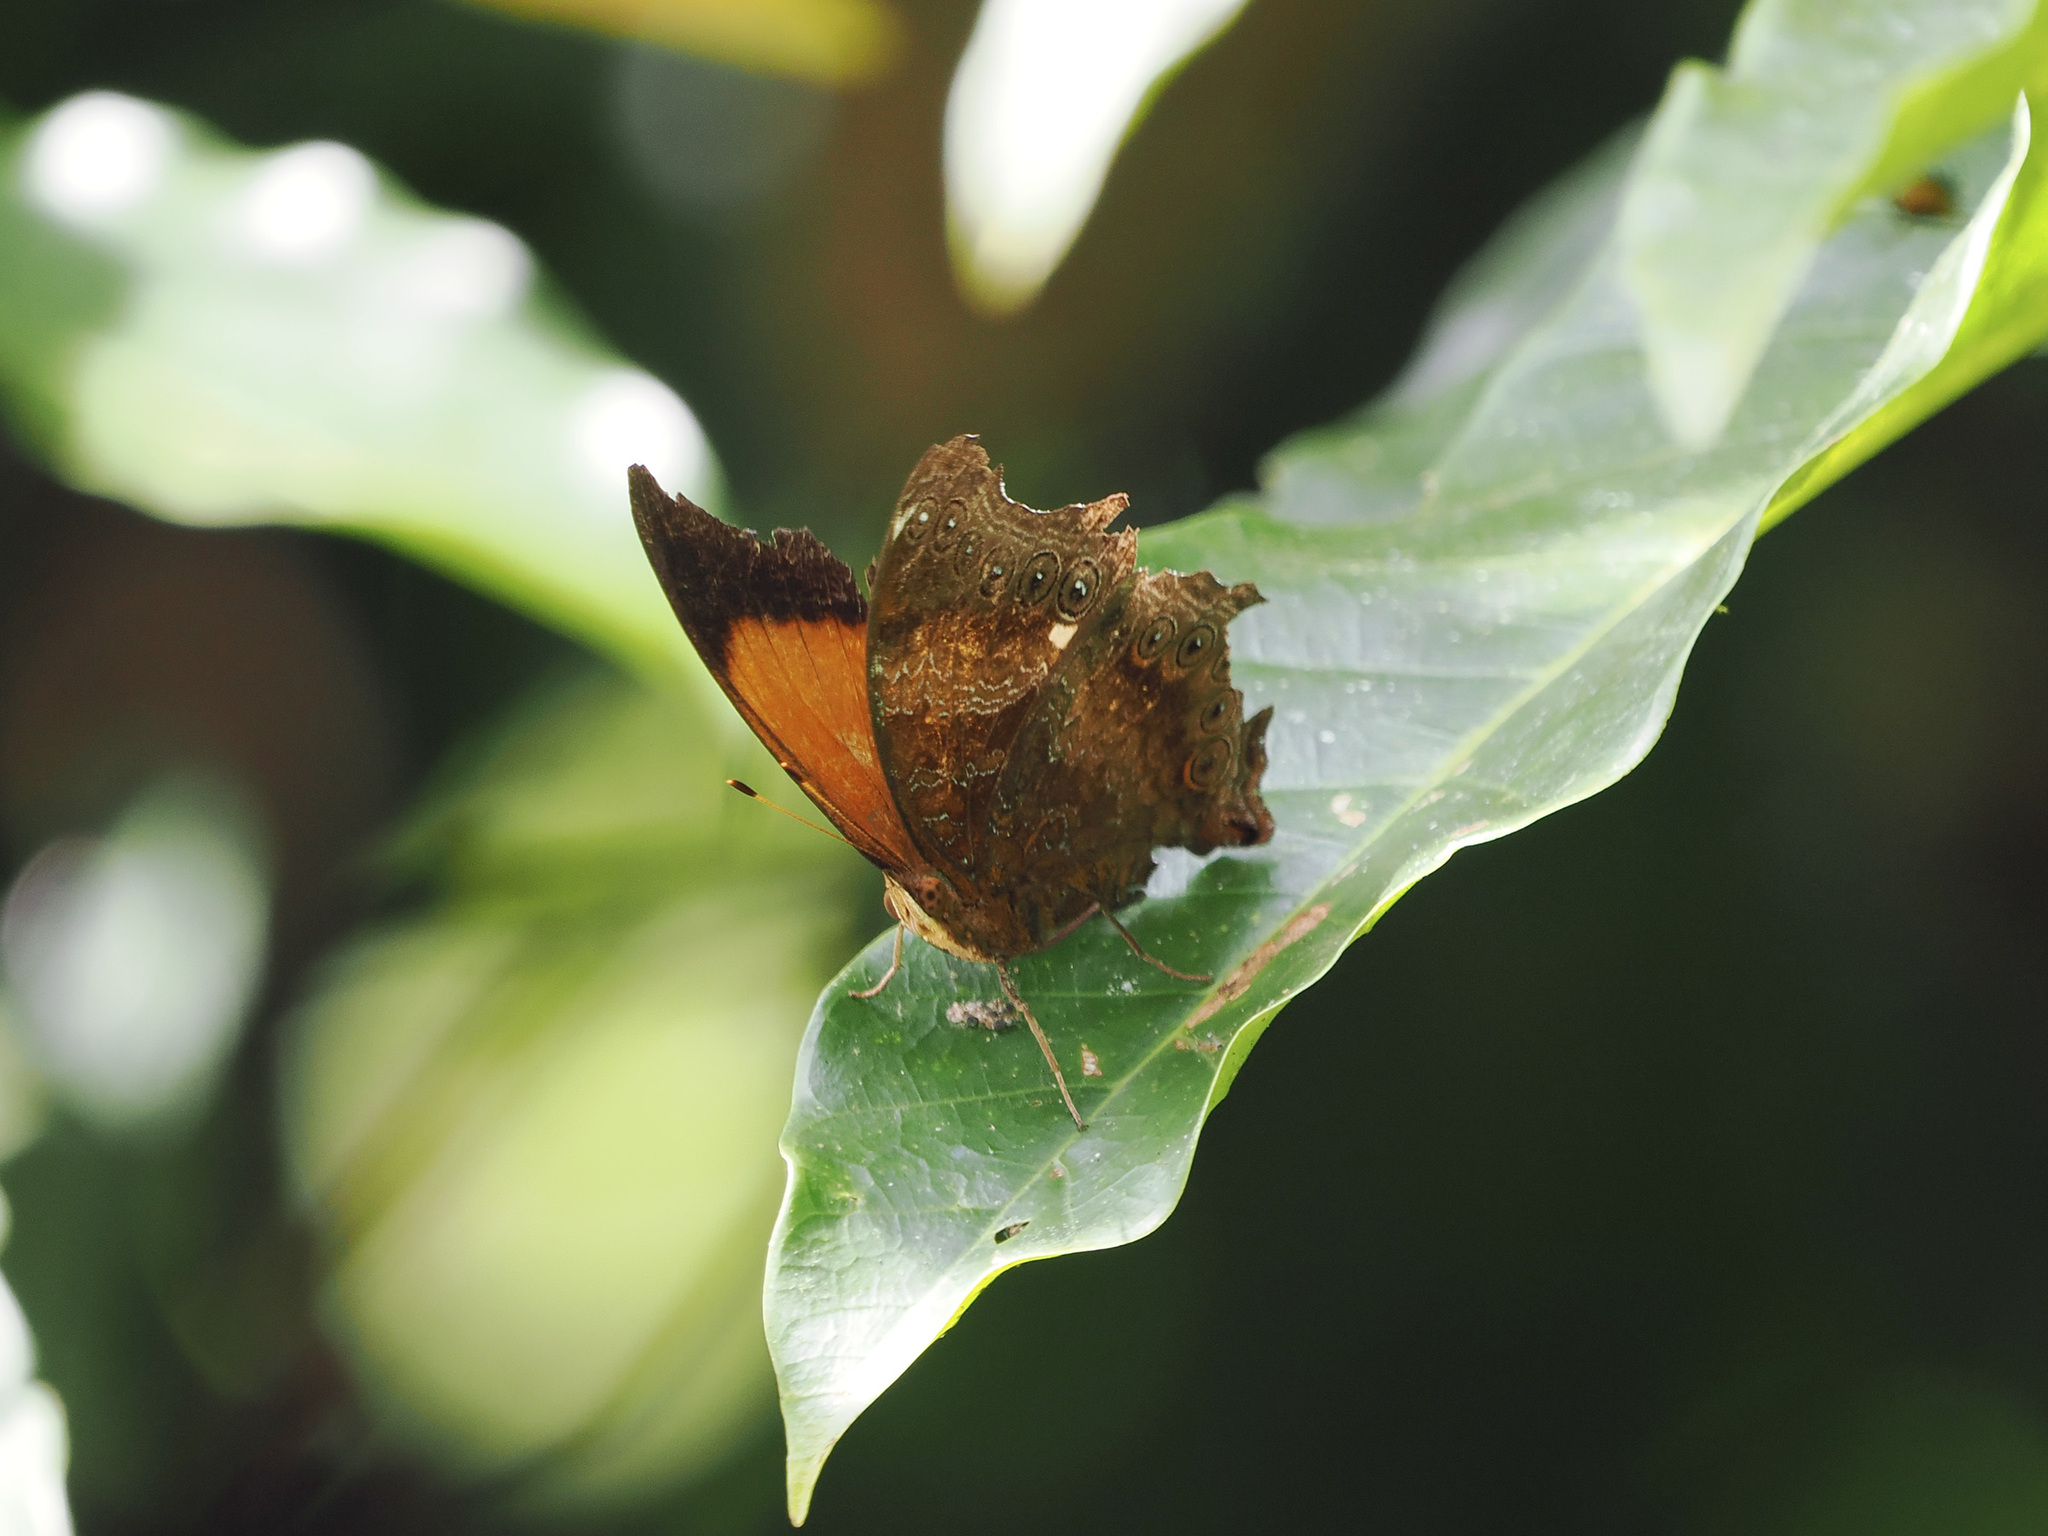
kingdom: Animalia
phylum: Arthropoda
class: Insecta
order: Lepidoptera
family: Nymphalidae
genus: Rhinopalpa
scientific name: Rhinopalpa polynice
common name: Wizard
